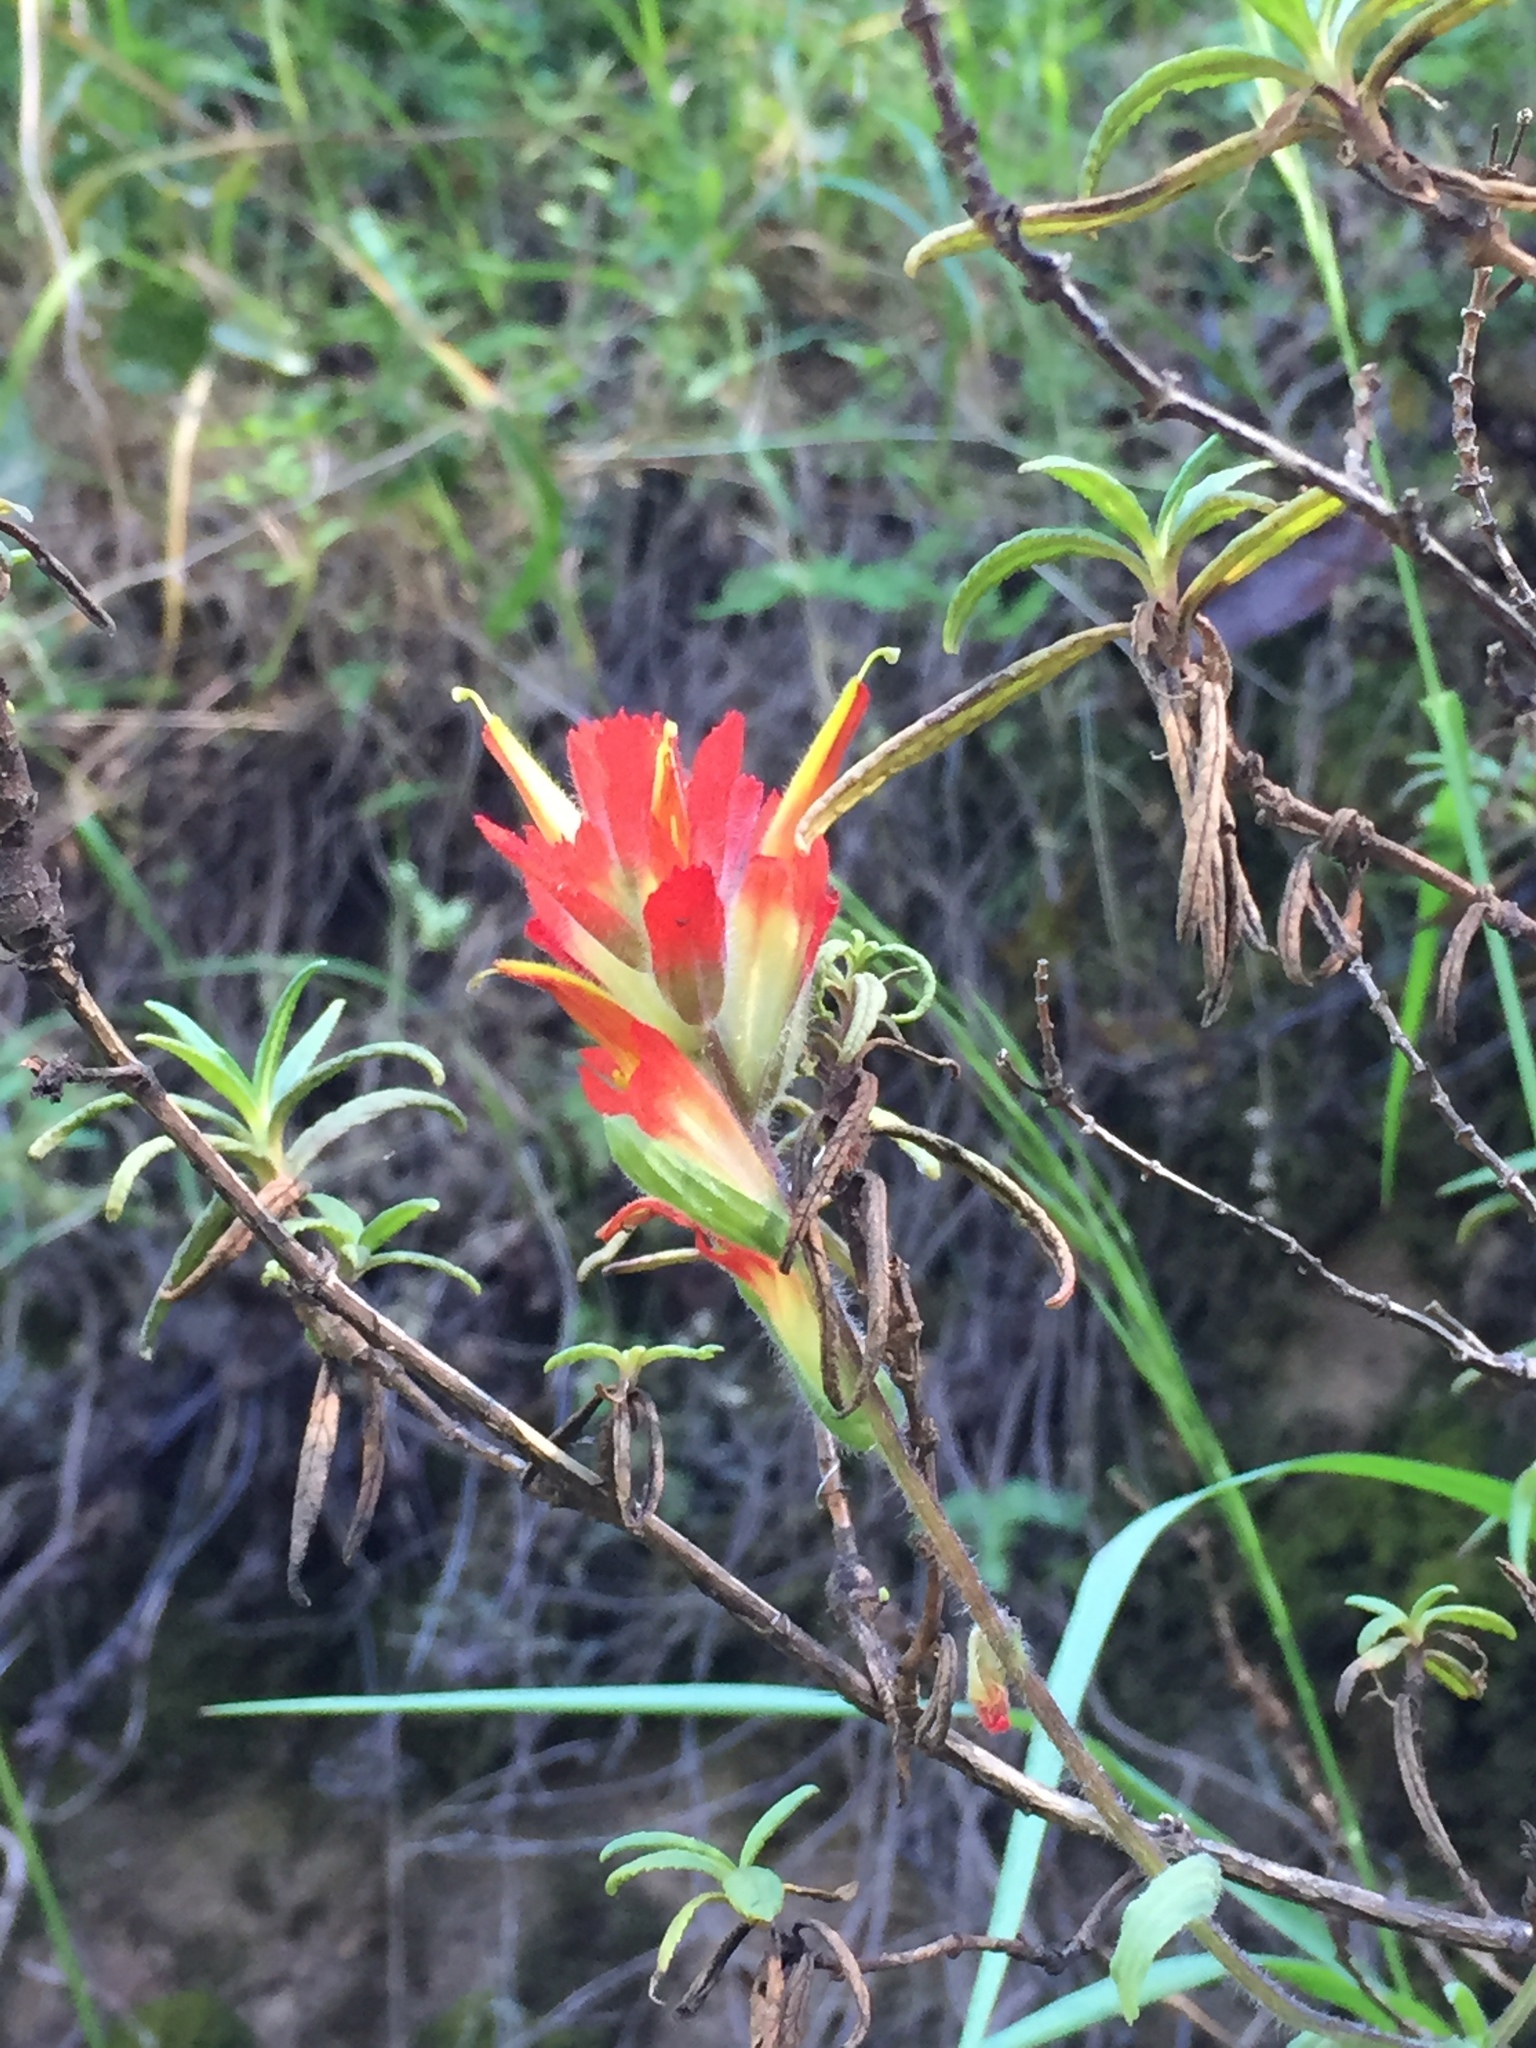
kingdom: Plantae
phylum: Tracheophyta
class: Magnoliopsida
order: Lamiales
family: Orobanchaceae
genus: Castilleja
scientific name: Castilleja affinis
